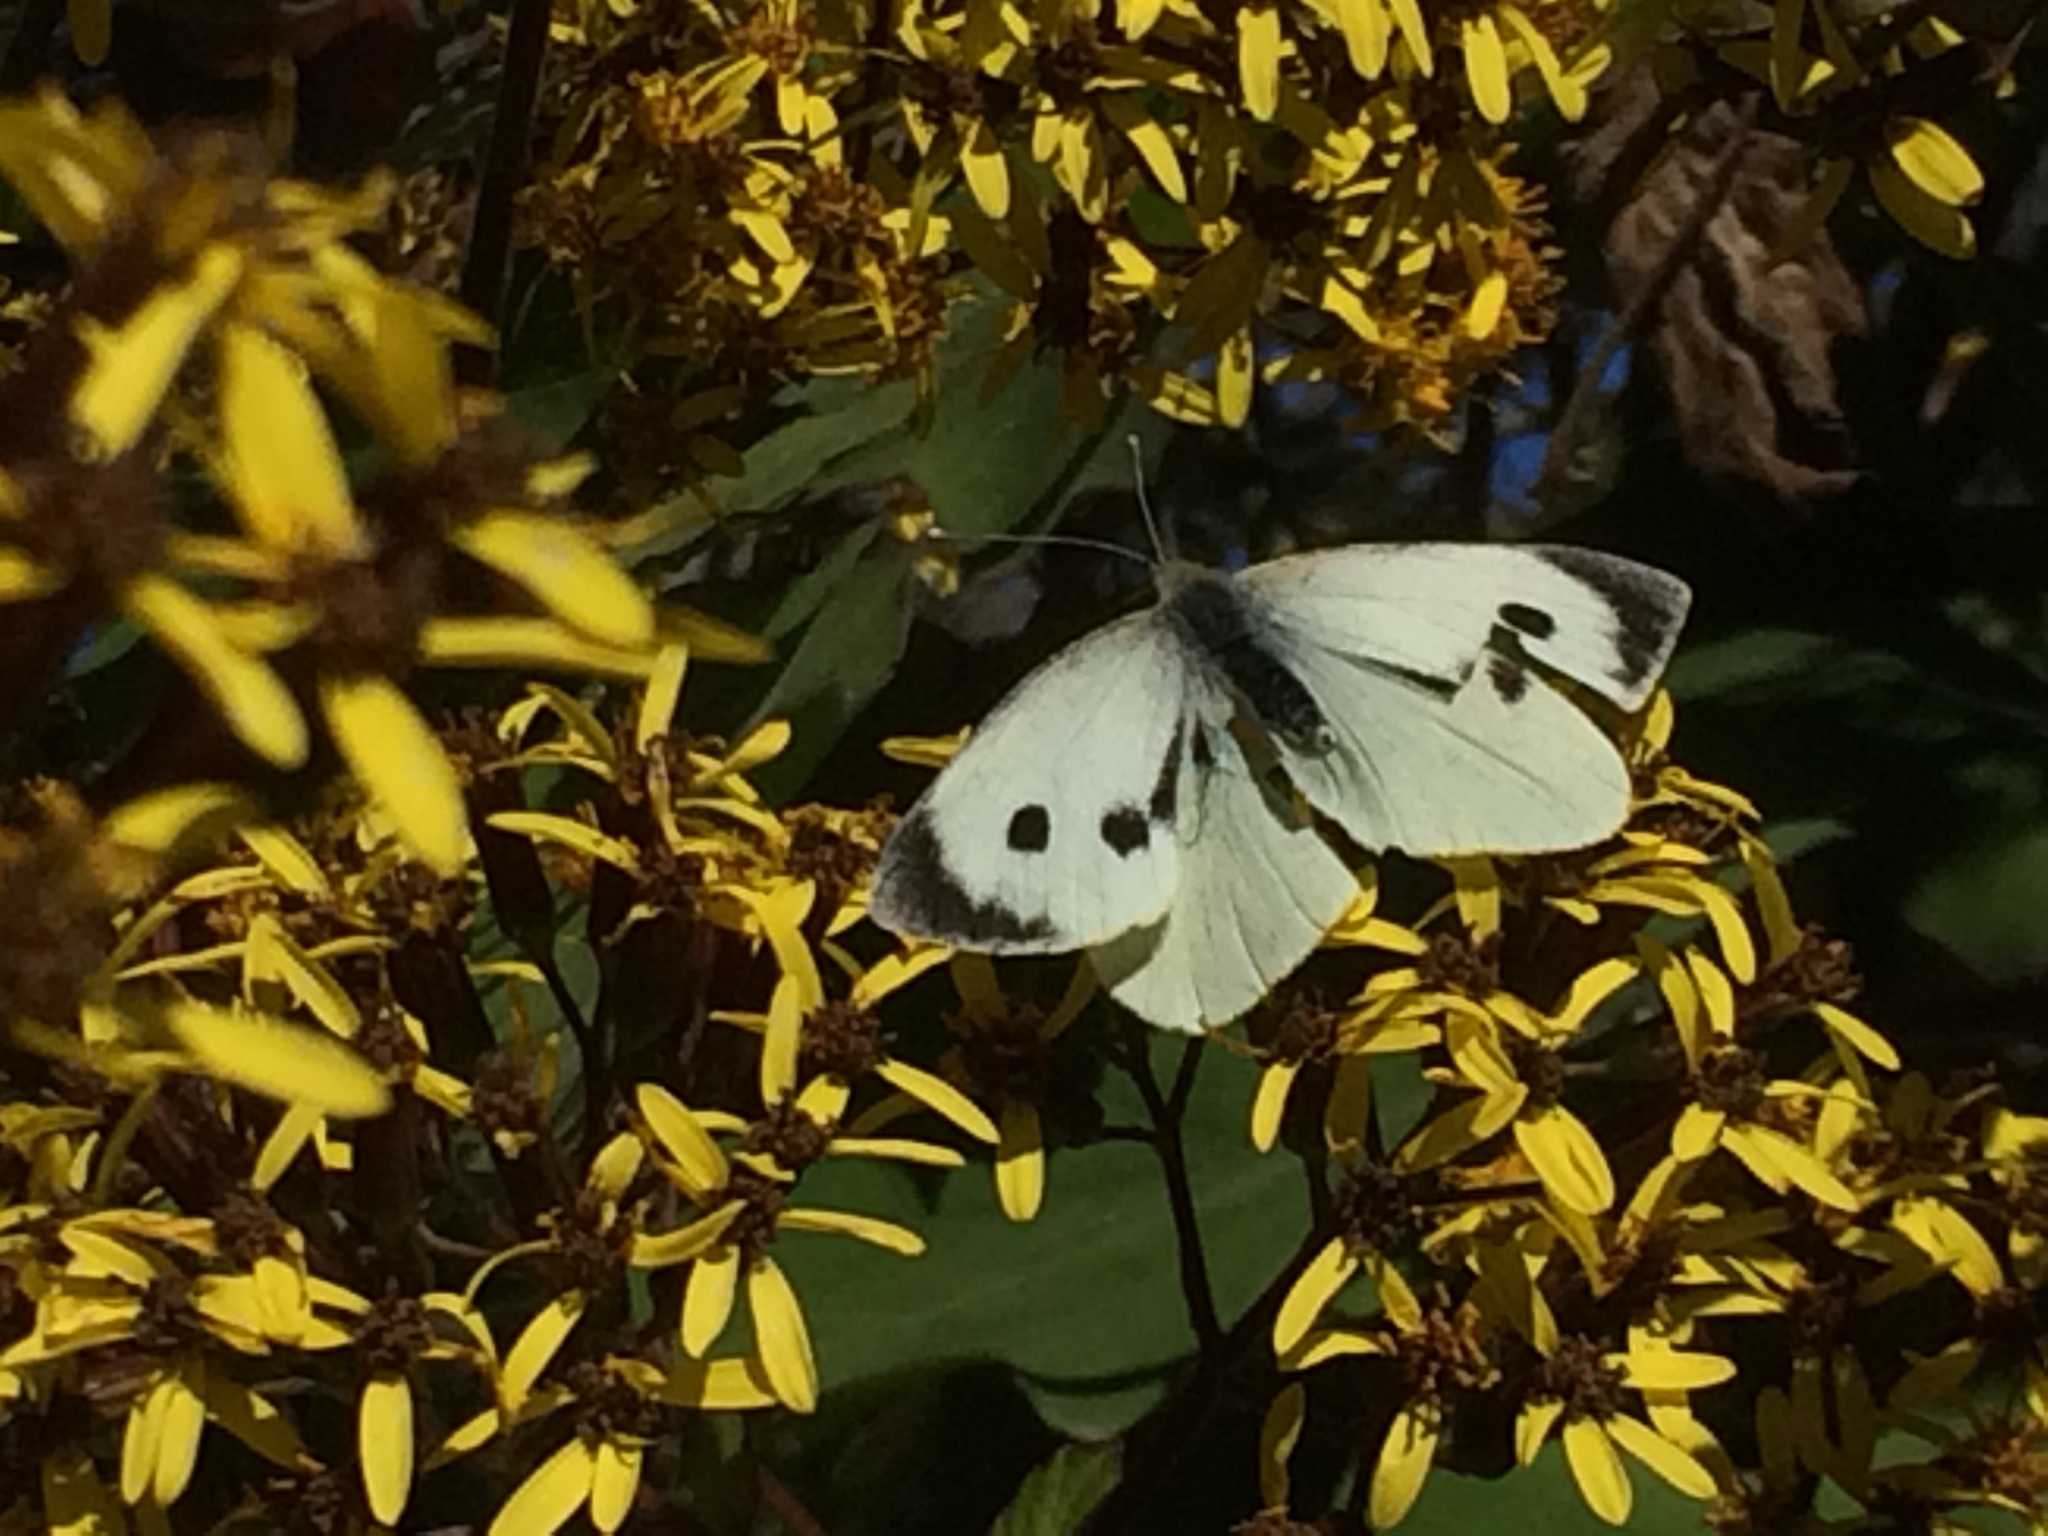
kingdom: Animalia
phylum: Arthropoda
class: Insecta
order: Lepidoptera
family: Pieridae
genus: Pieris
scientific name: Pieris brassicae
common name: Large white
